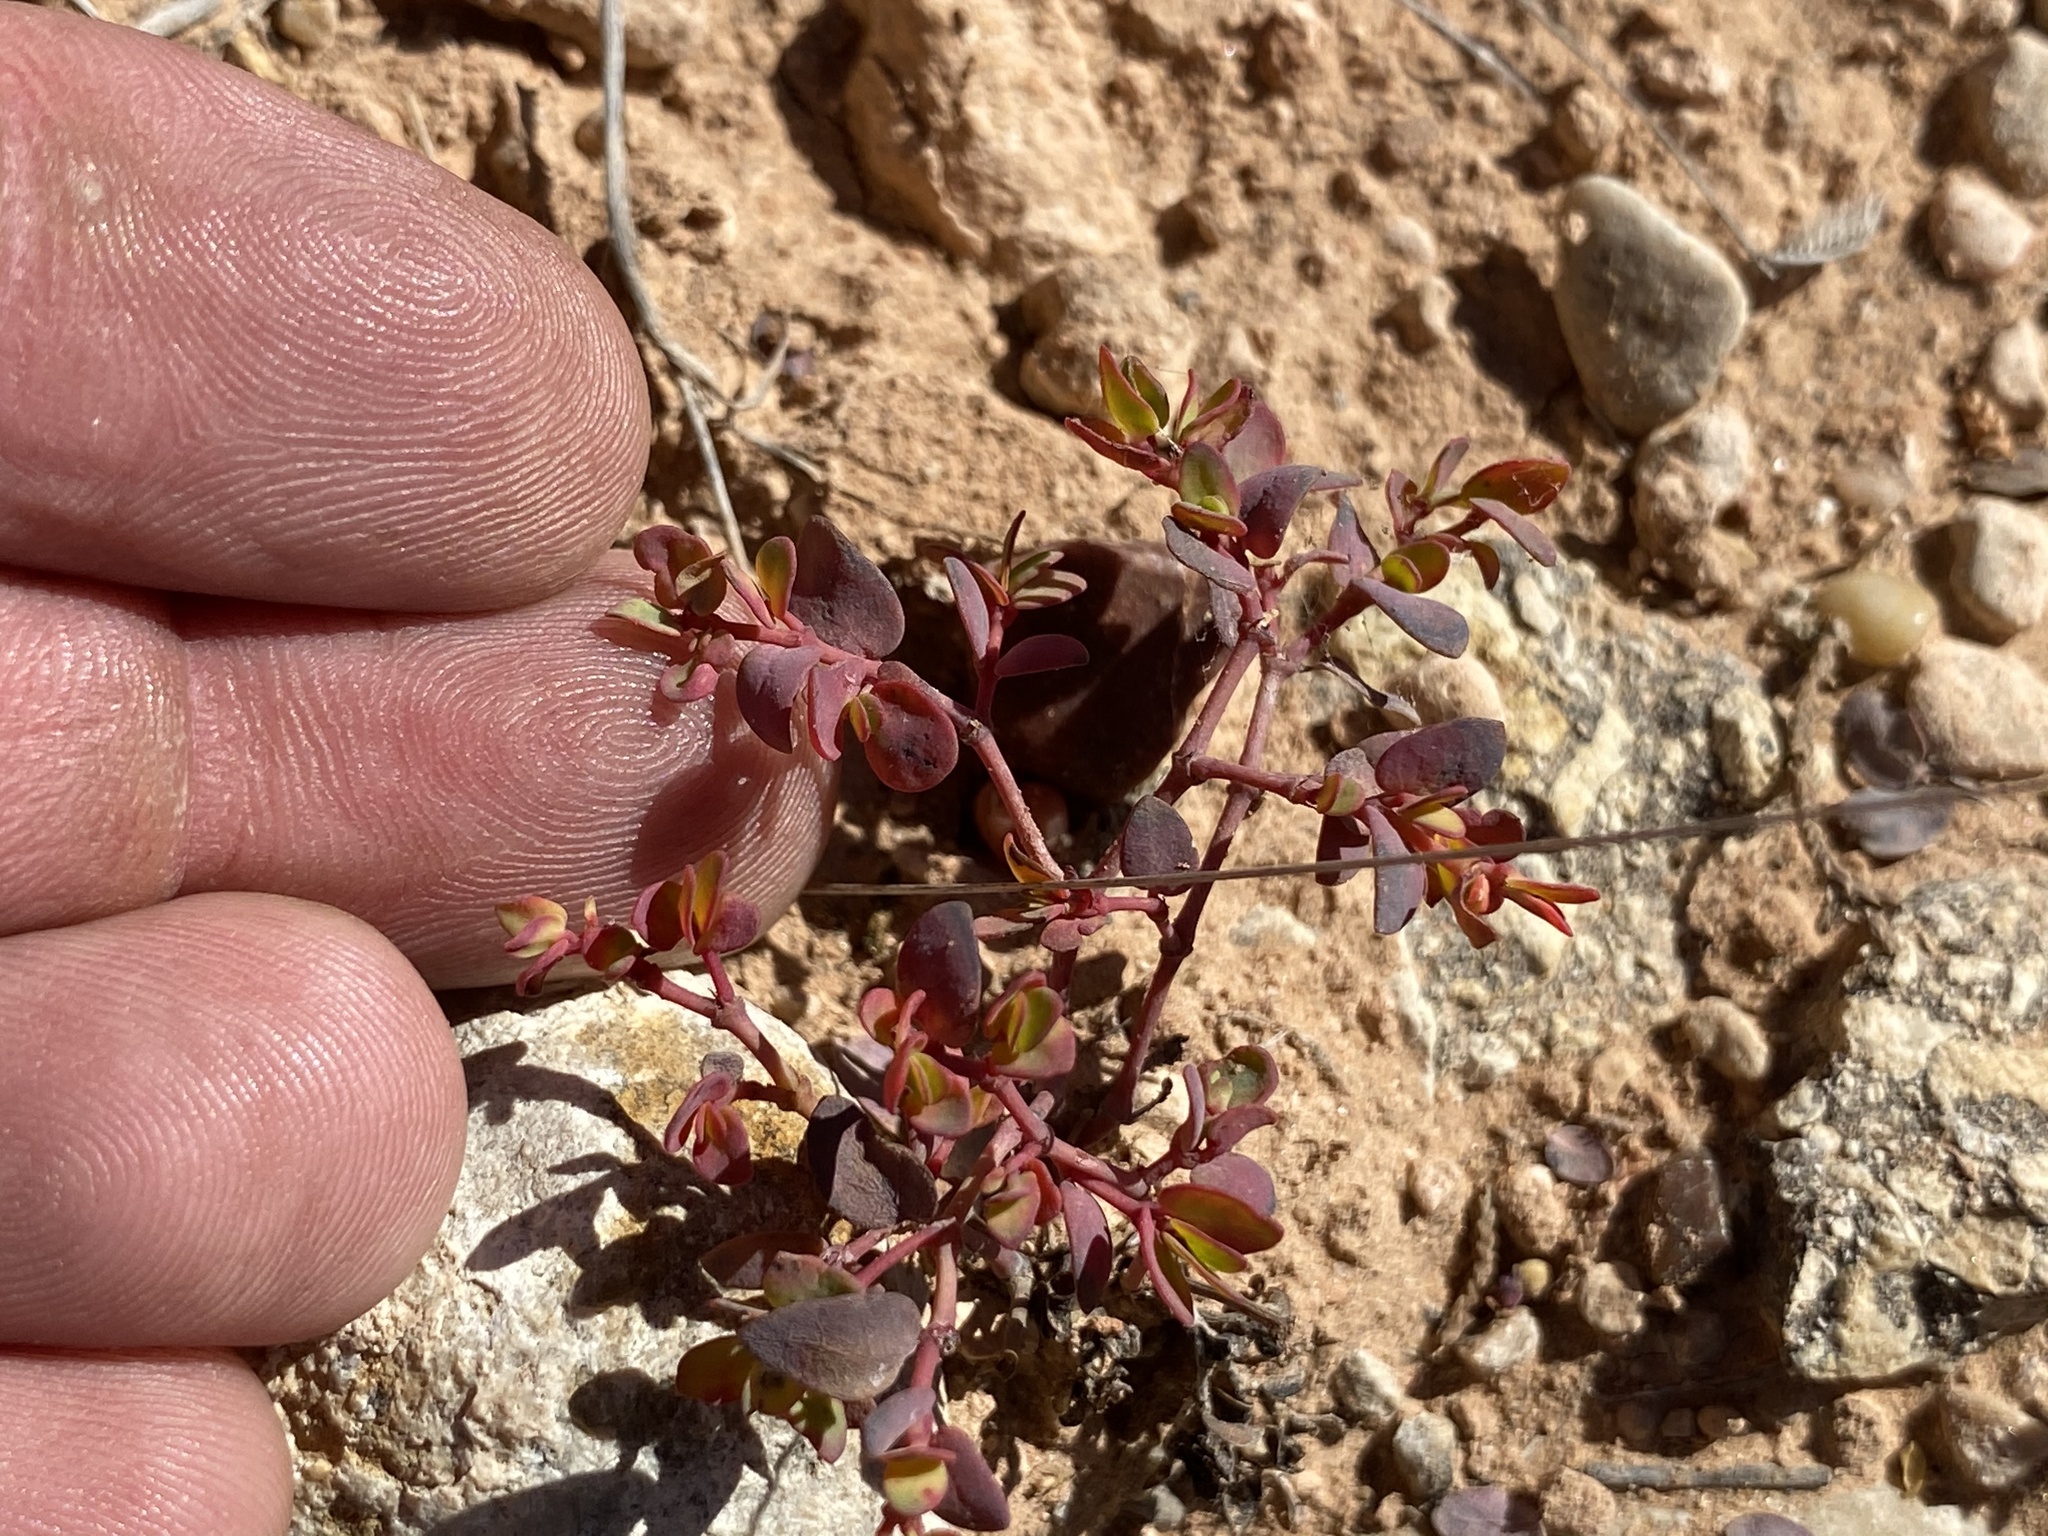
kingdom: Plantae
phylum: Tracheophyta
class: Magnoliopsida
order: Malpighiales
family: Euphorbiaceae
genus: Euphorbia
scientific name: Euphorbia fendleri
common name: Fendler's euphorbia
